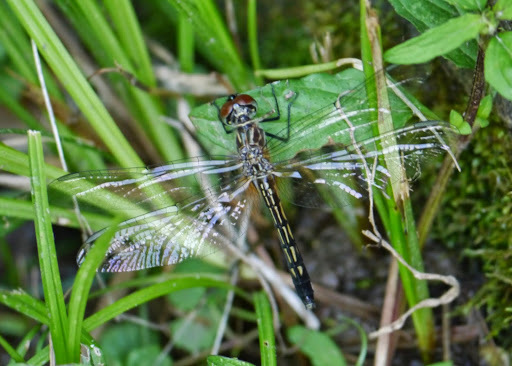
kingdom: Animalia
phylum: Arthropoda
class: Insecta
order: Odonata
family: Libellulidae
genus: Pachydiplax
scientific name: Pachydiplax longipennis
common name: Blue dasher
